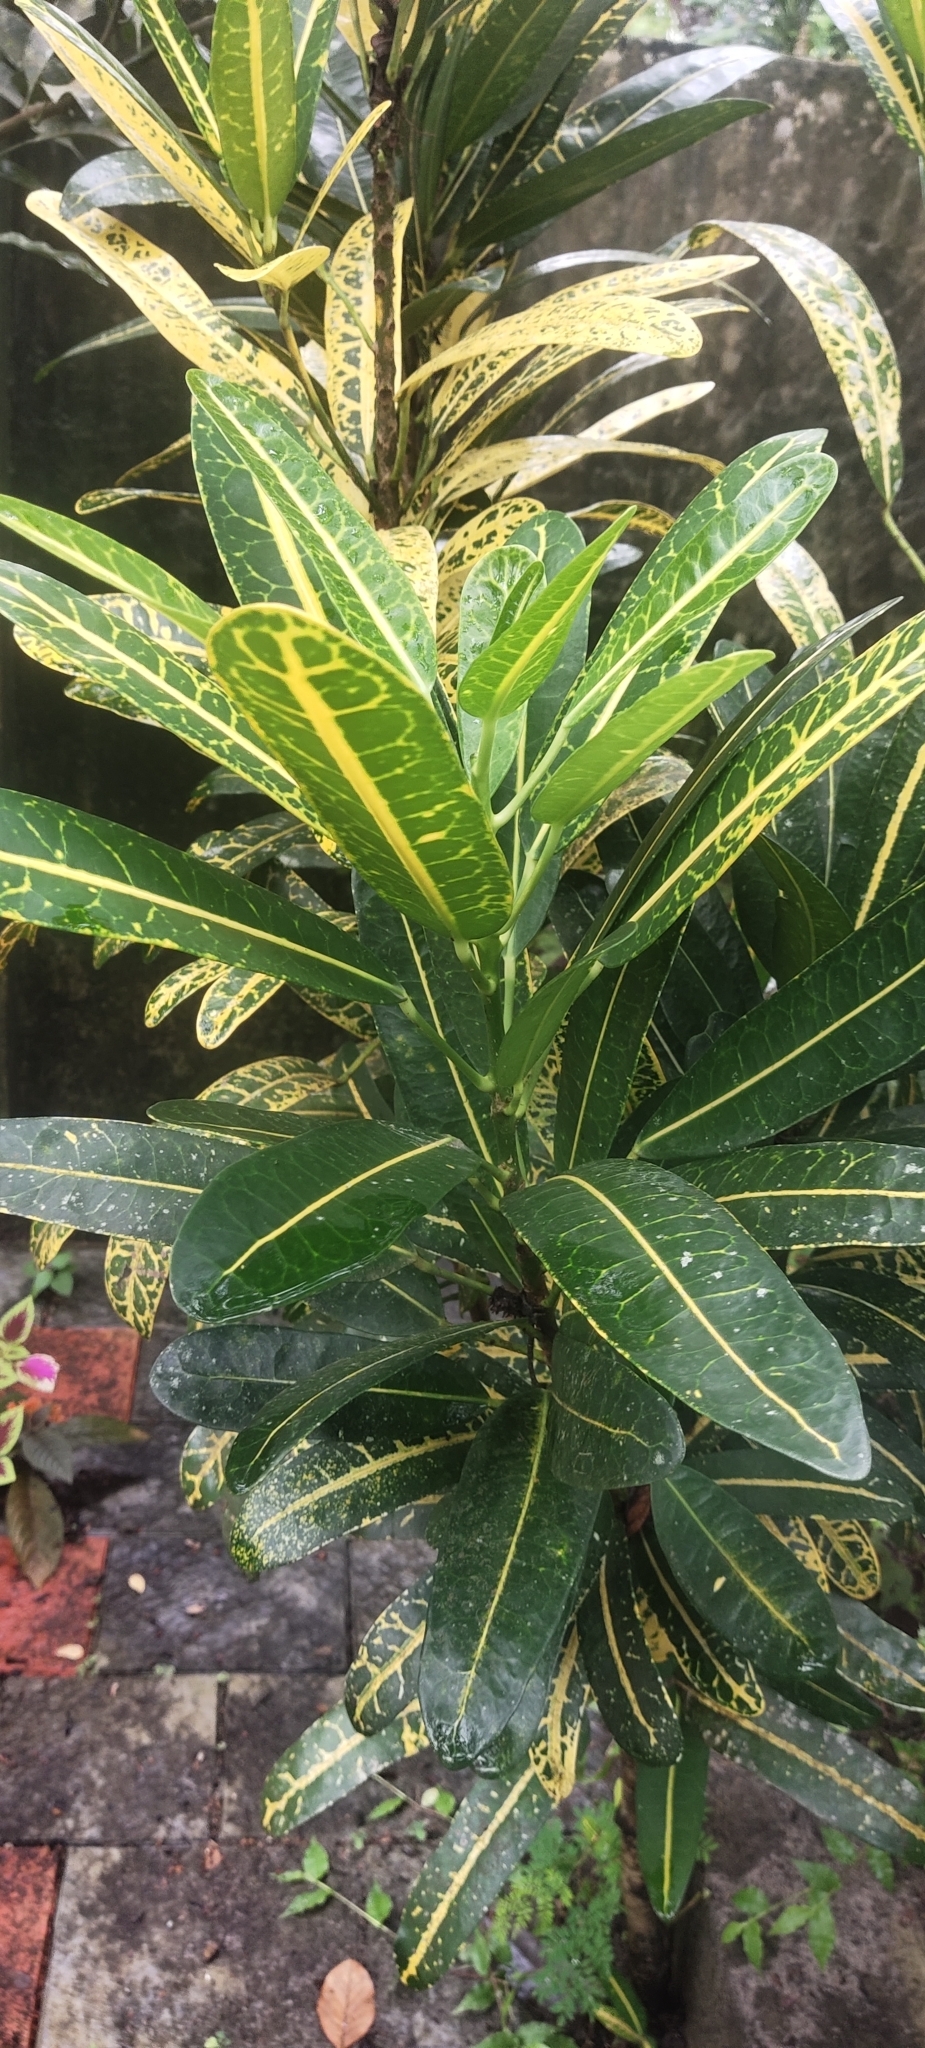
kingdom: Plantae
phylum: Tracheophyta
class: Magnoliopsida
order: Malpighiales
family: Euphorbiaceae
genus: Codiaeum
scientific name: Codiaeum variegatum
